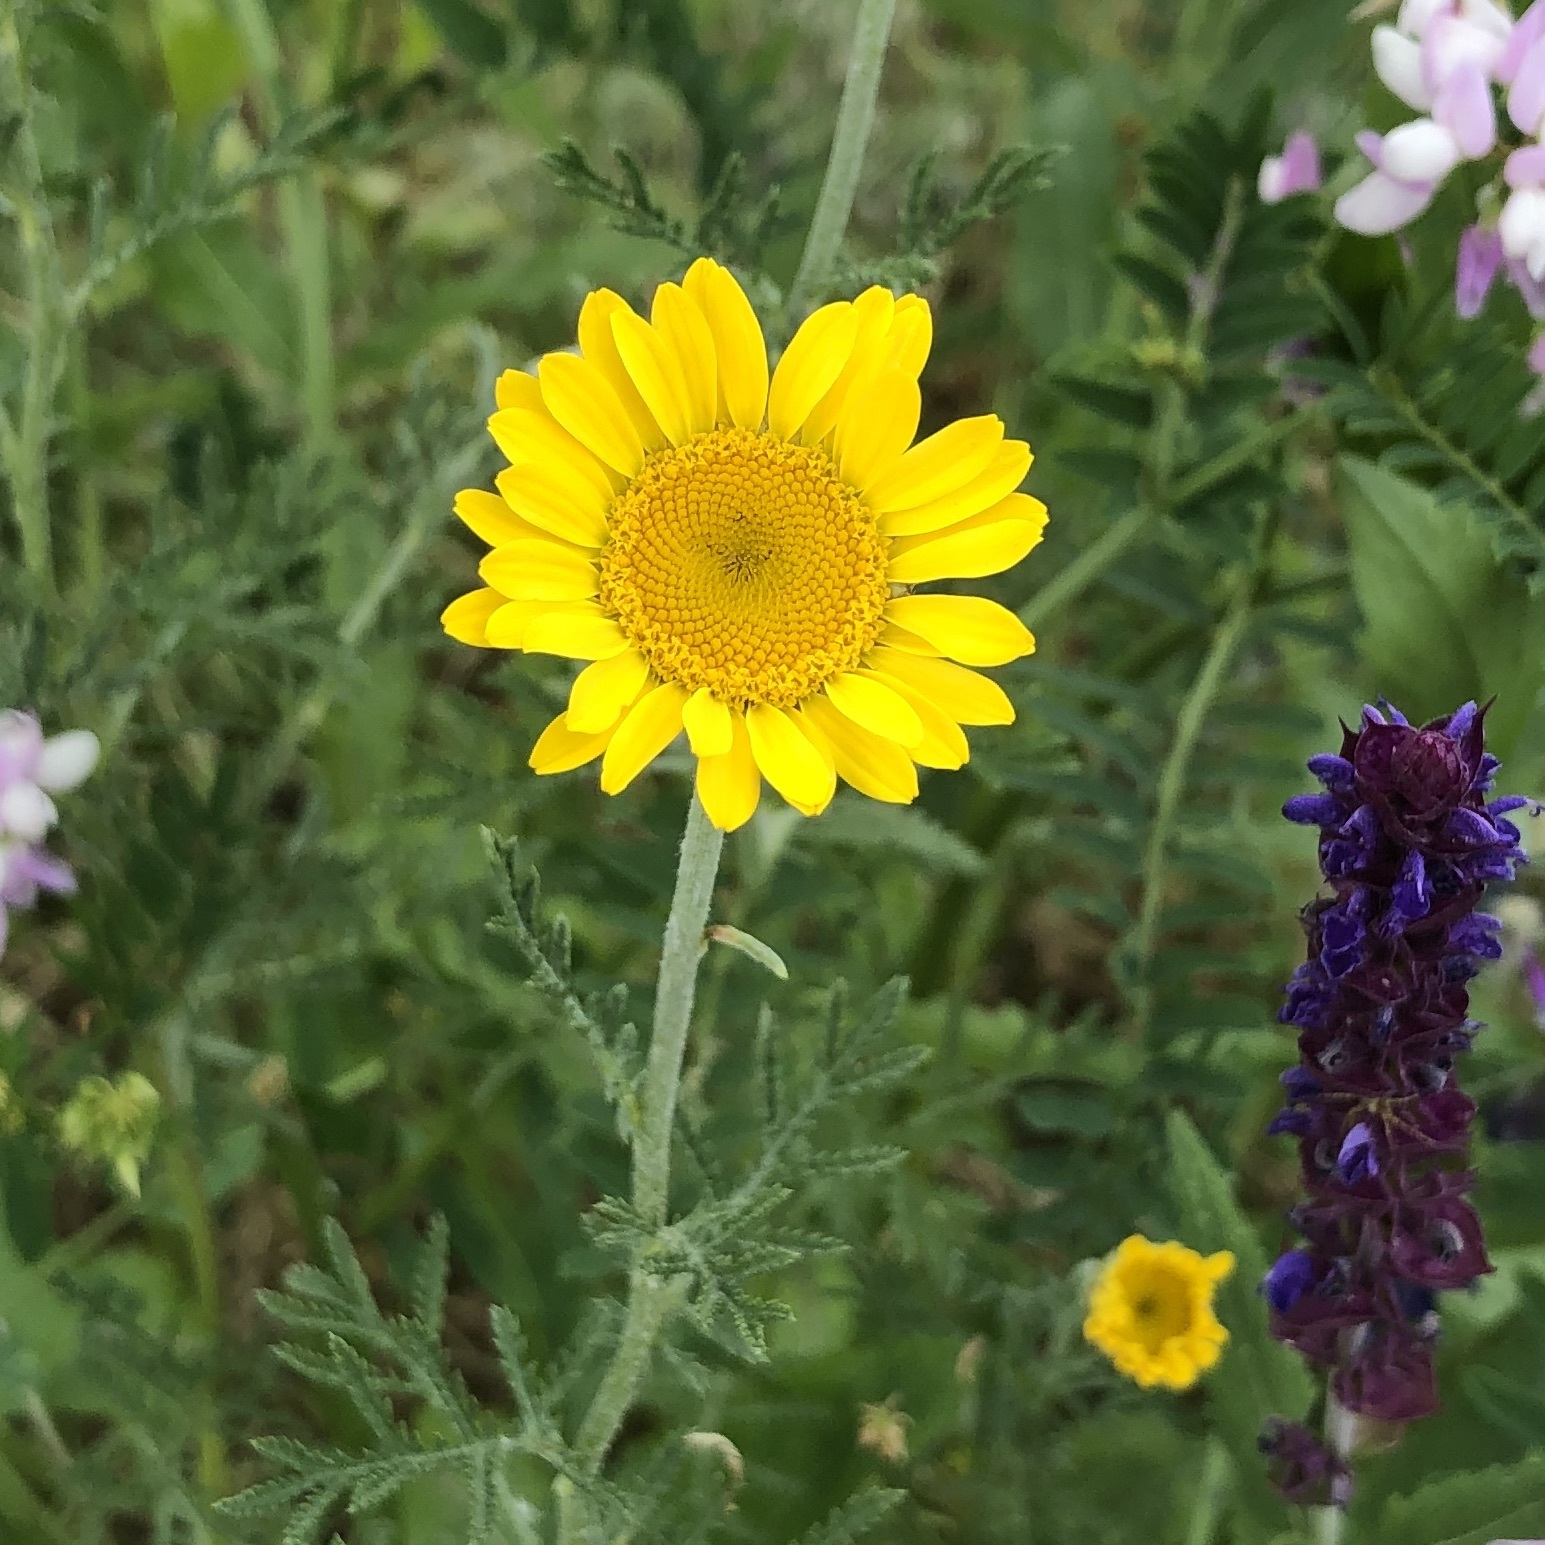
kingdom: Plantae
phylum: Tracheophyta
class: Magnoliopsida
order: Asterales
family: Asteraceae
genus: Cota
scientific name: Cota tinctoria
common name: Golden chamomile
